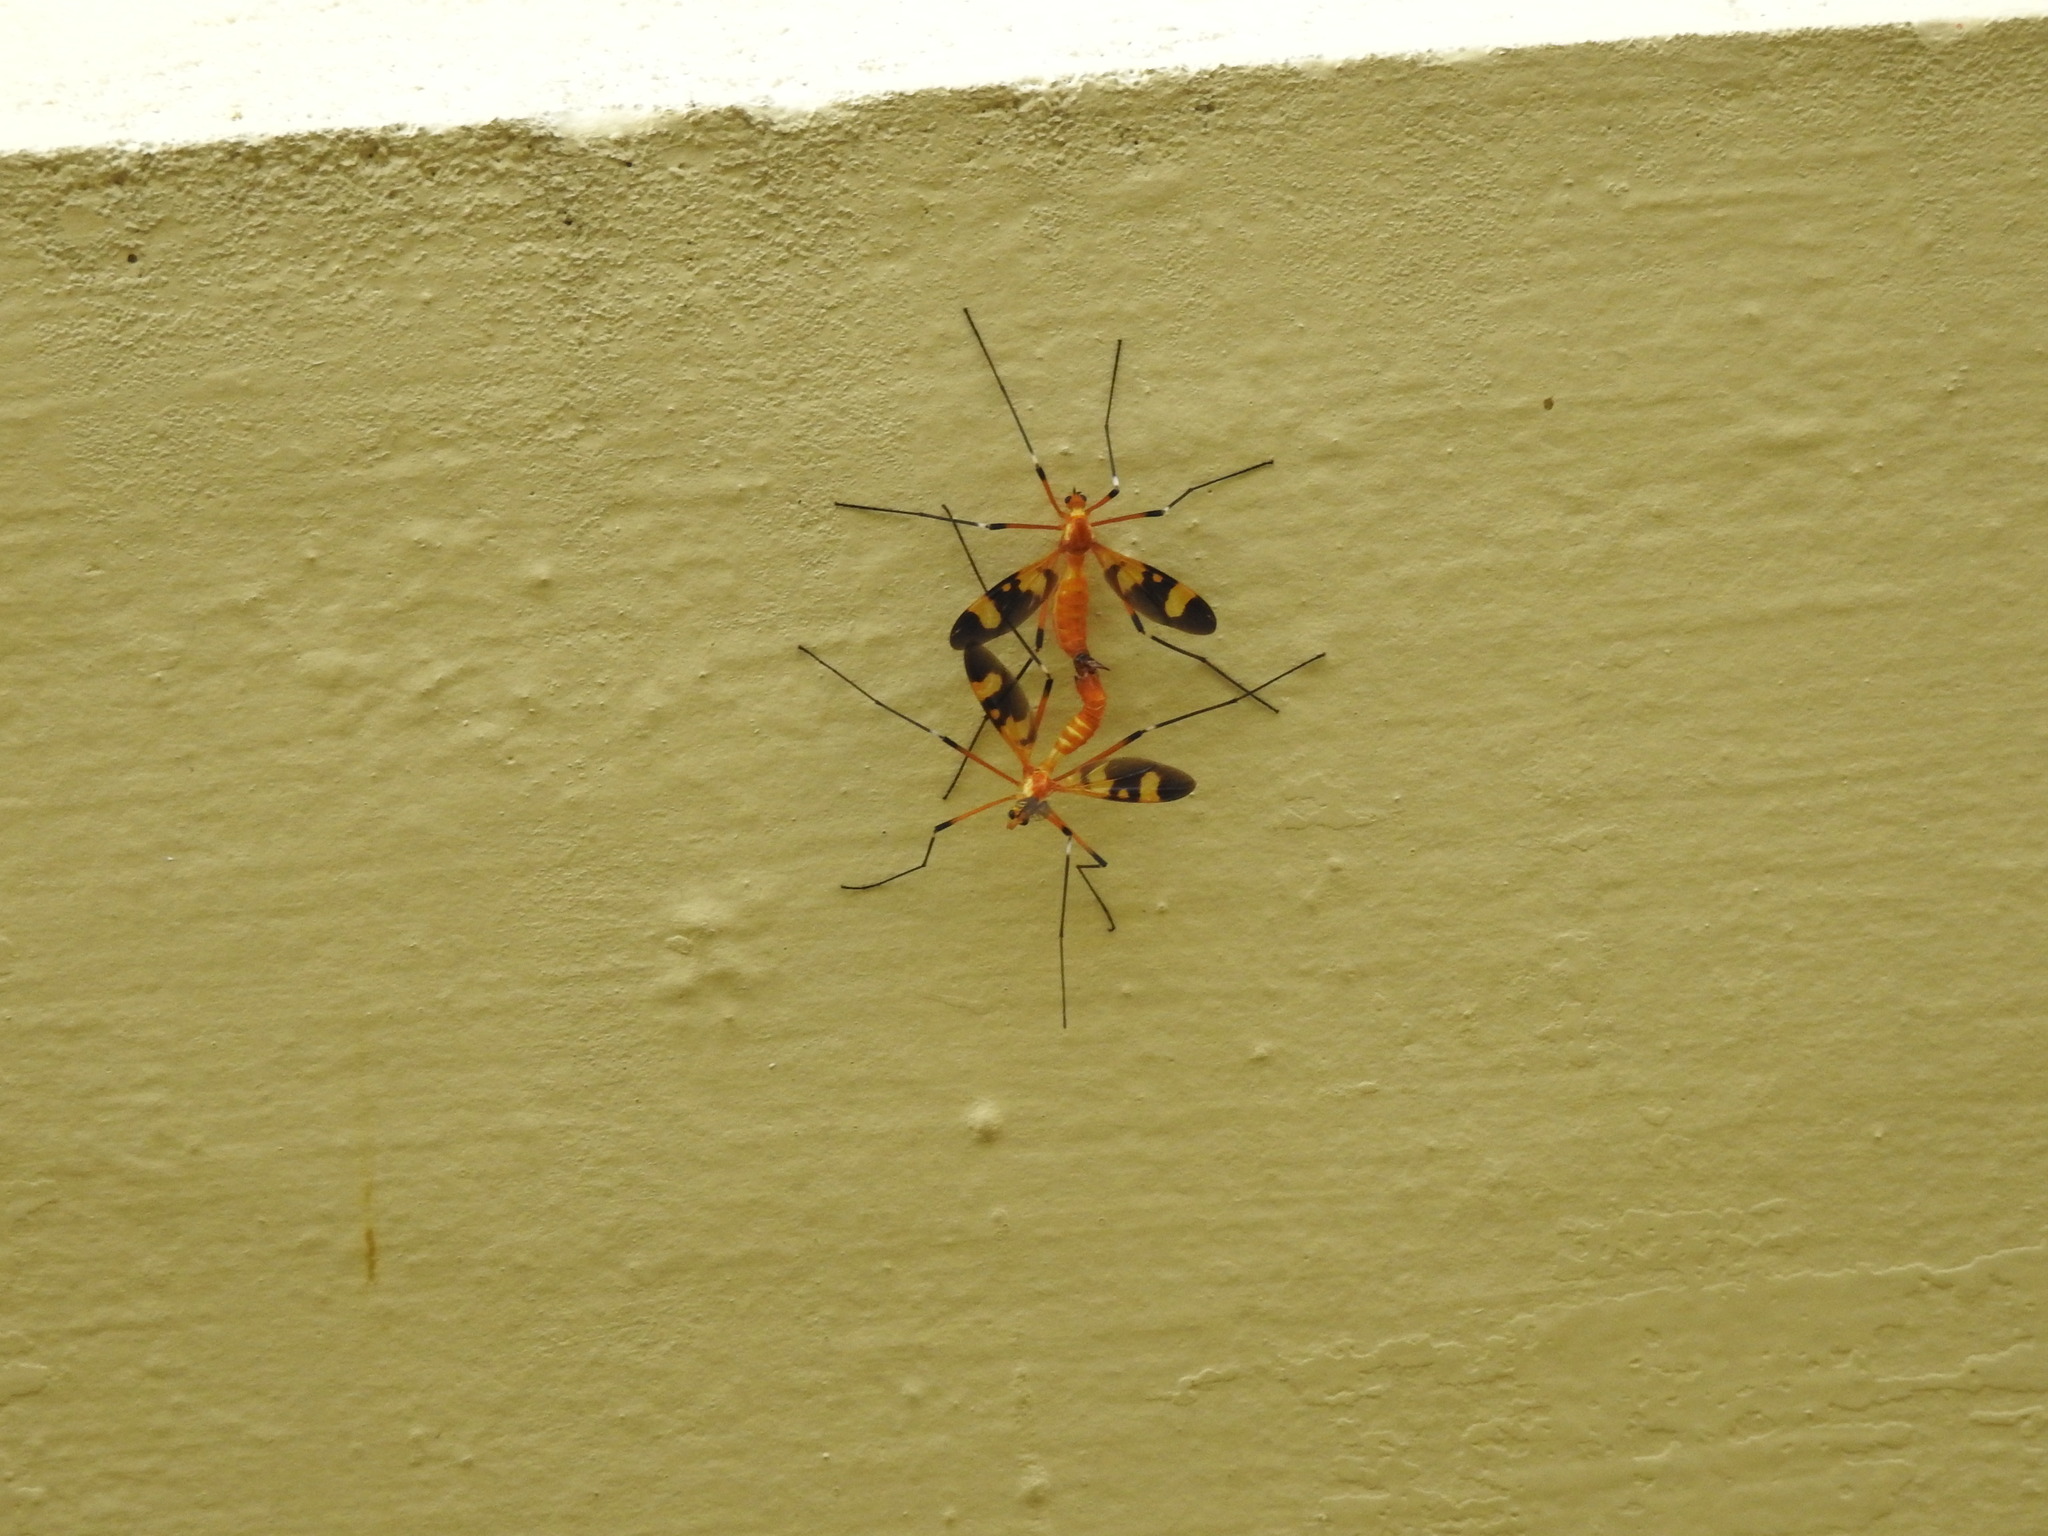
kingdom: Animalia
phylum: Arthropoda
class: Insecta
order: Diptera
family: Tipulidae
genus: Pselliophora
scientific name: Pselliophora laeta
